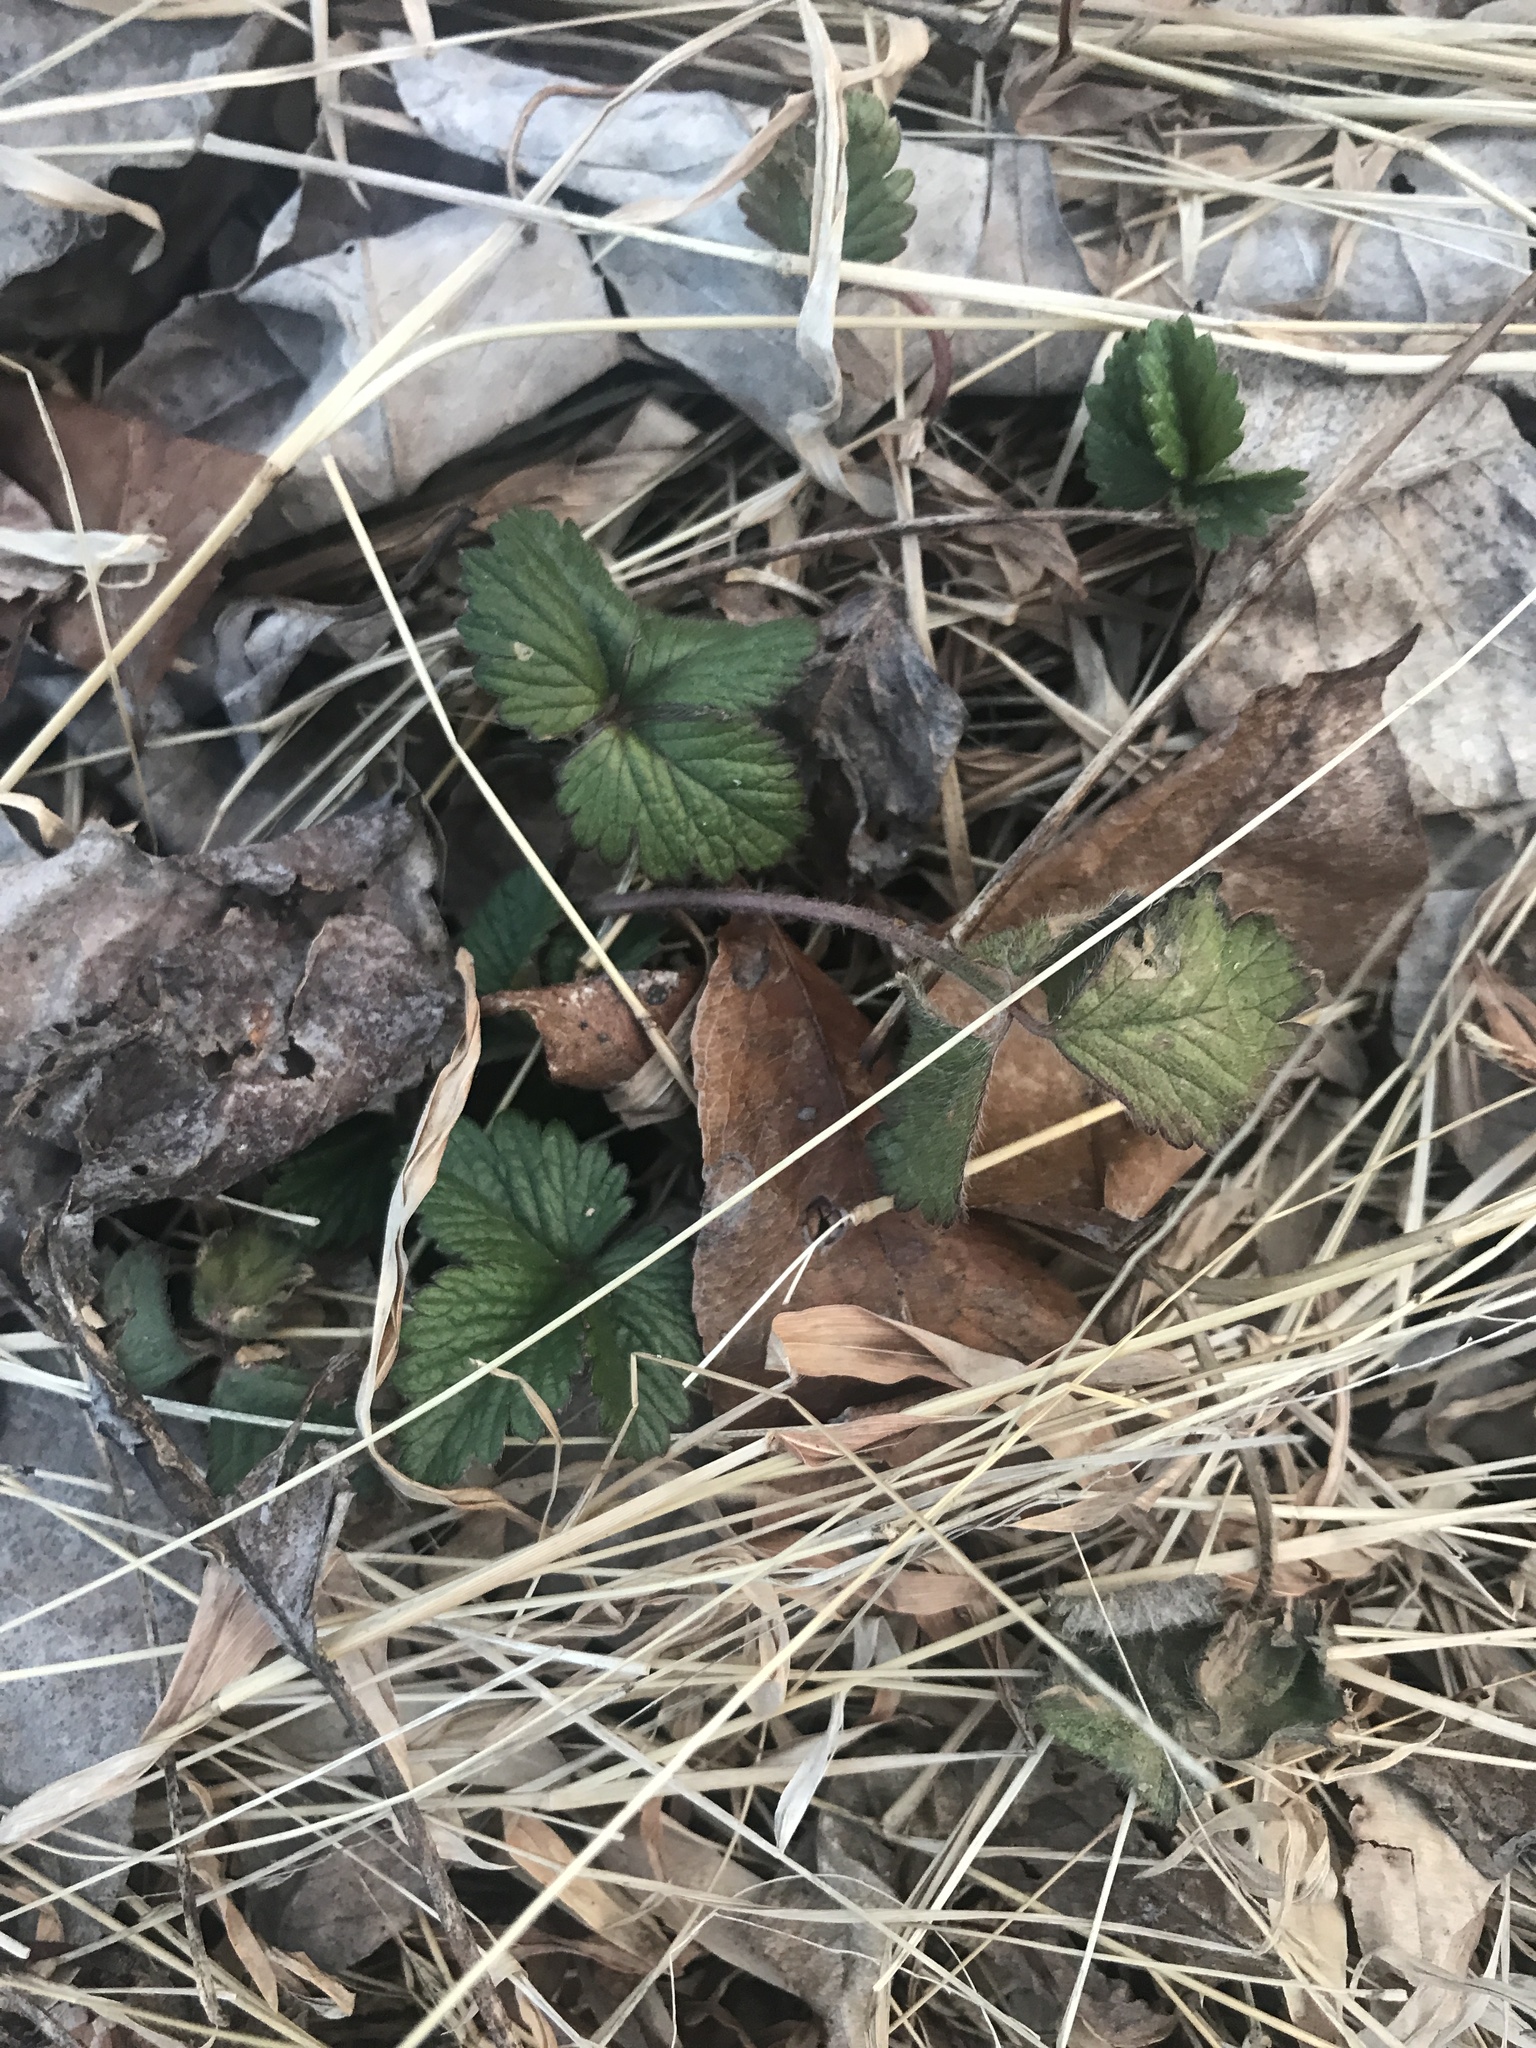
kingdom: Plantae
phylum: Tracheophyta
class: Magnoliopsida
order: Rosales
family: Rosaceae
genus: Potentilla
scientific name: Potentilla indica
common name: Yellow-flowered strawberry
